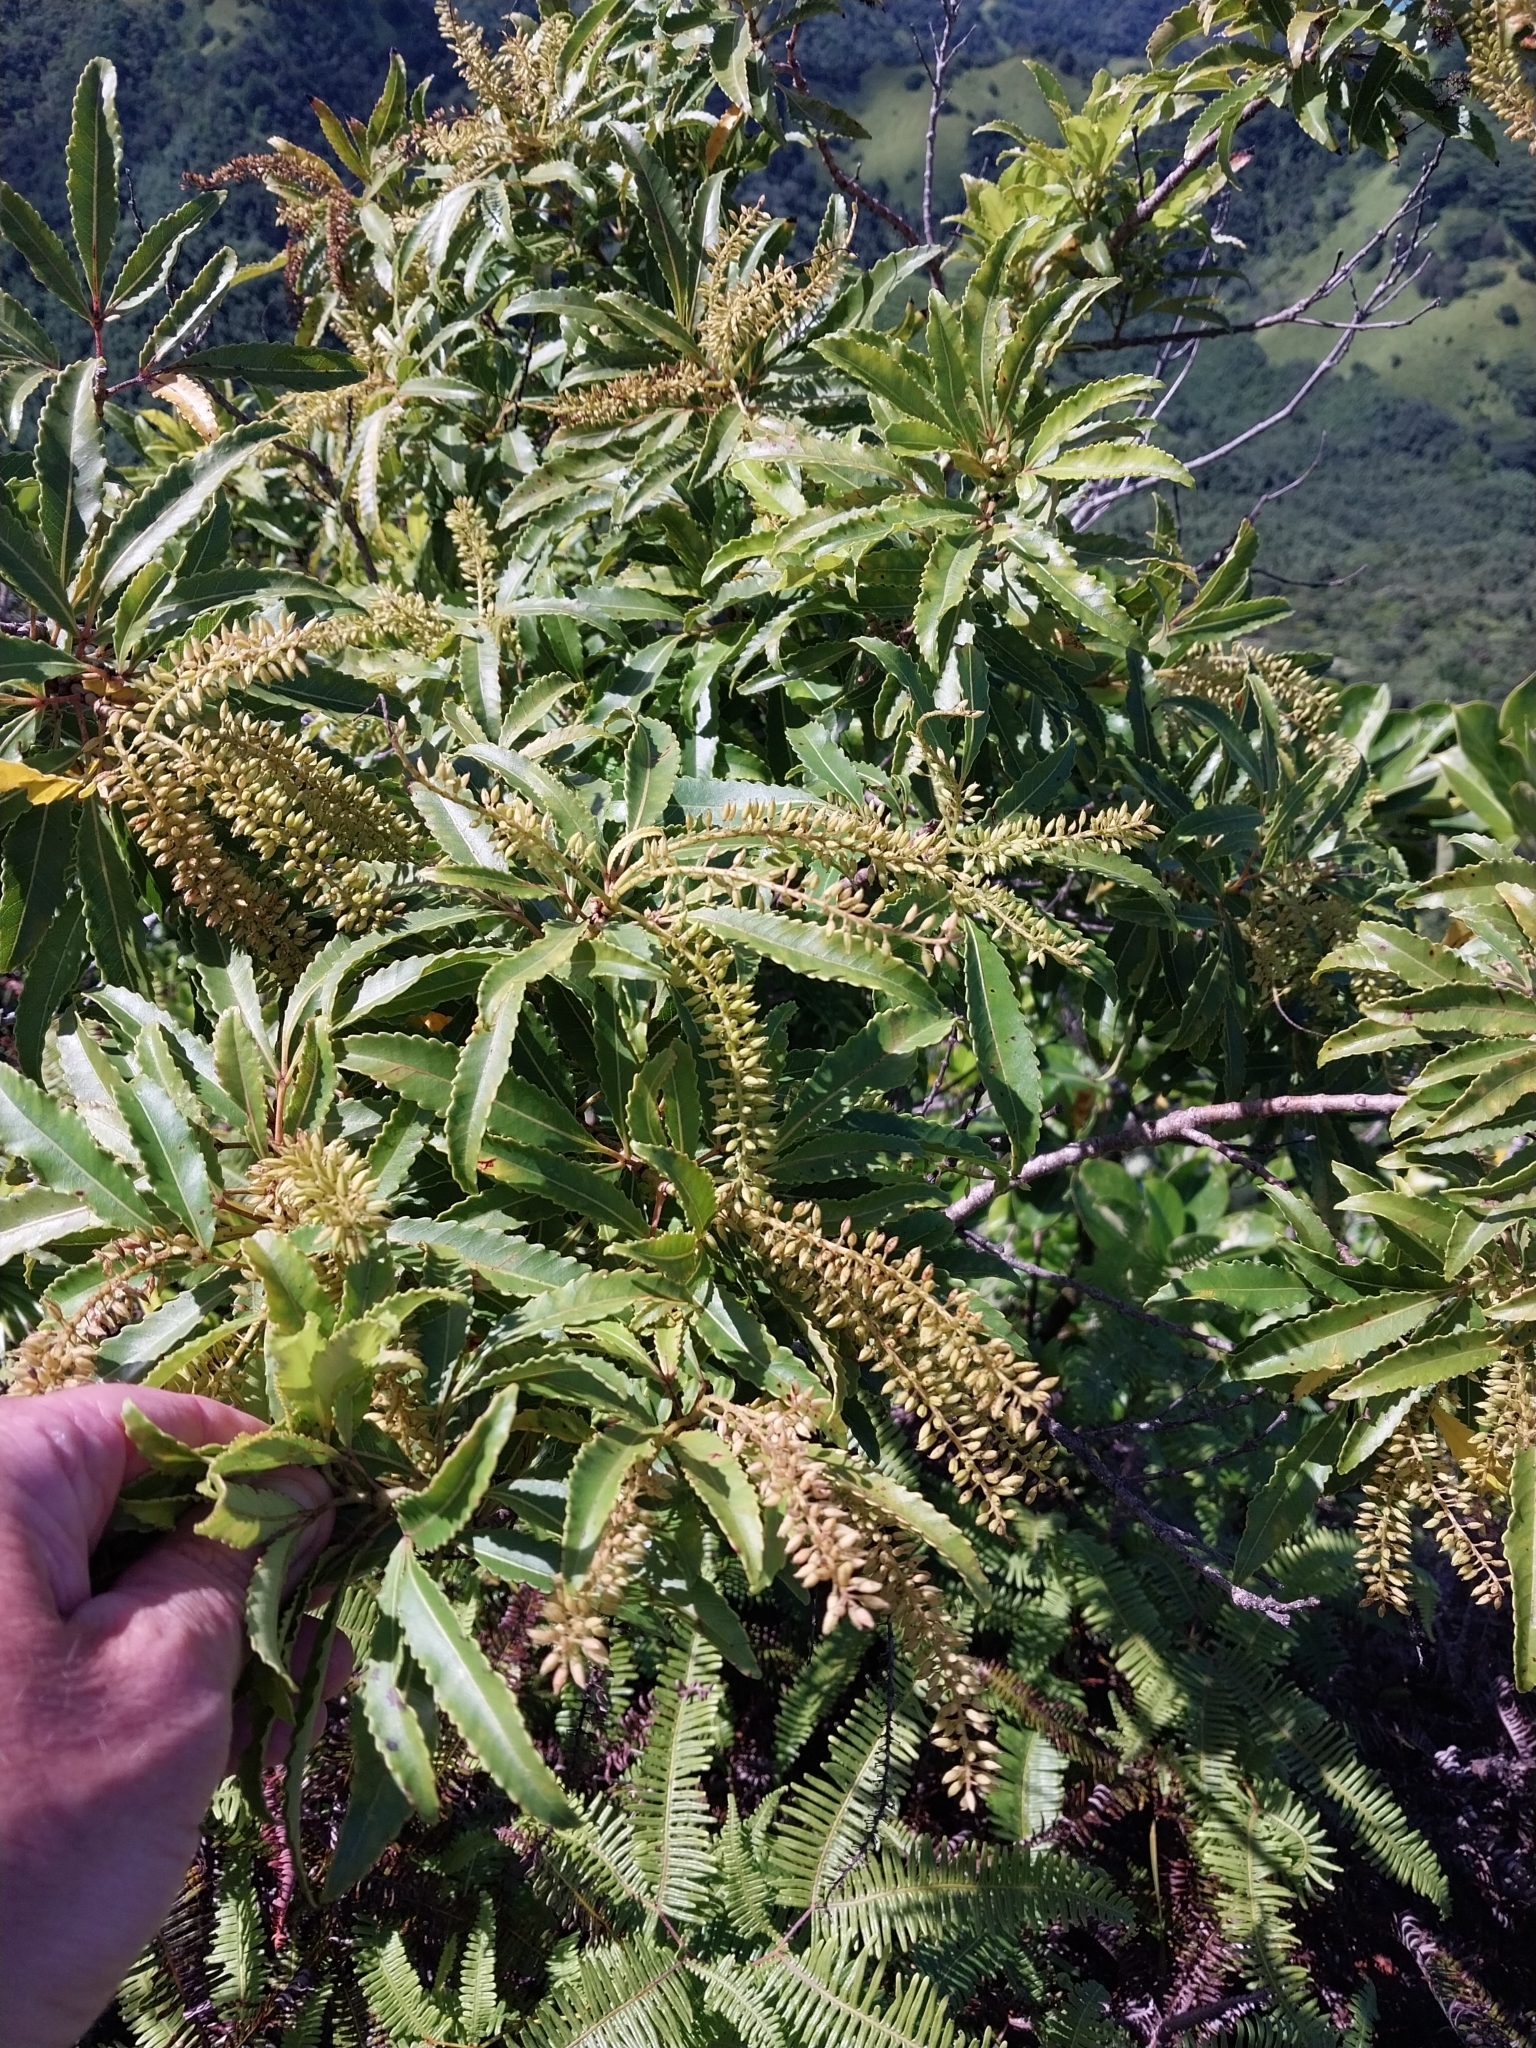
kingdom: Plantae
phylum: Tracheophyta
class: Magnoliopsida
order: Oxalidales
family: Cunoniaceae
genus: Pterophylla
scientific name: Pterophylla samoensis
